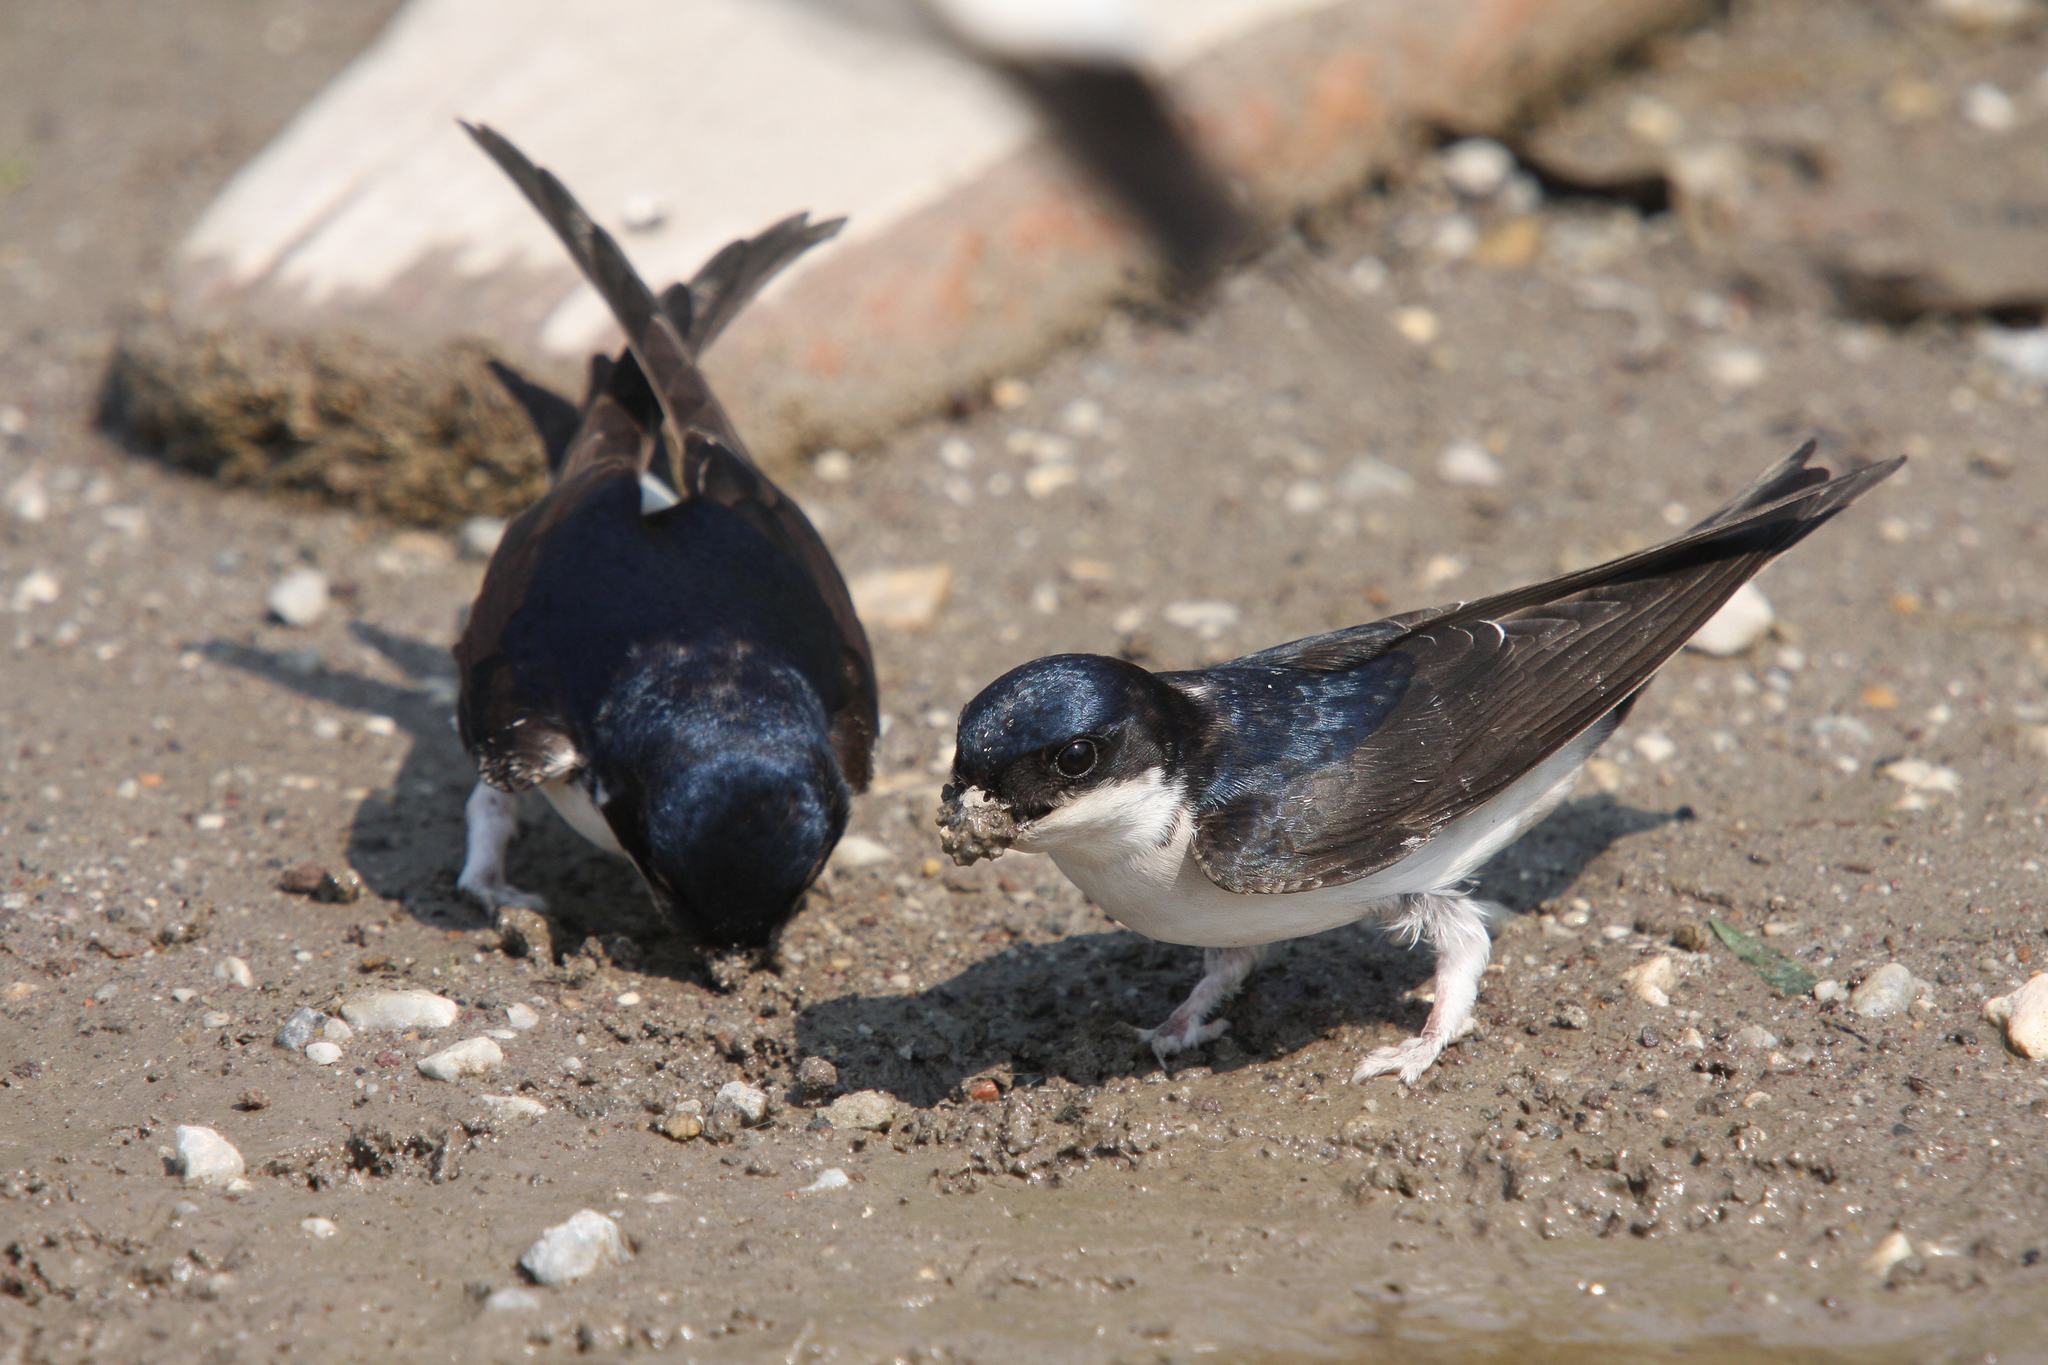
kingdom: Animalia
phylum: Chordata
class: Aves
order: Passeriformes
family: Hirundinidae
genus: Delichon
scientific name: Delichon urbicum
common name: Common house martin
